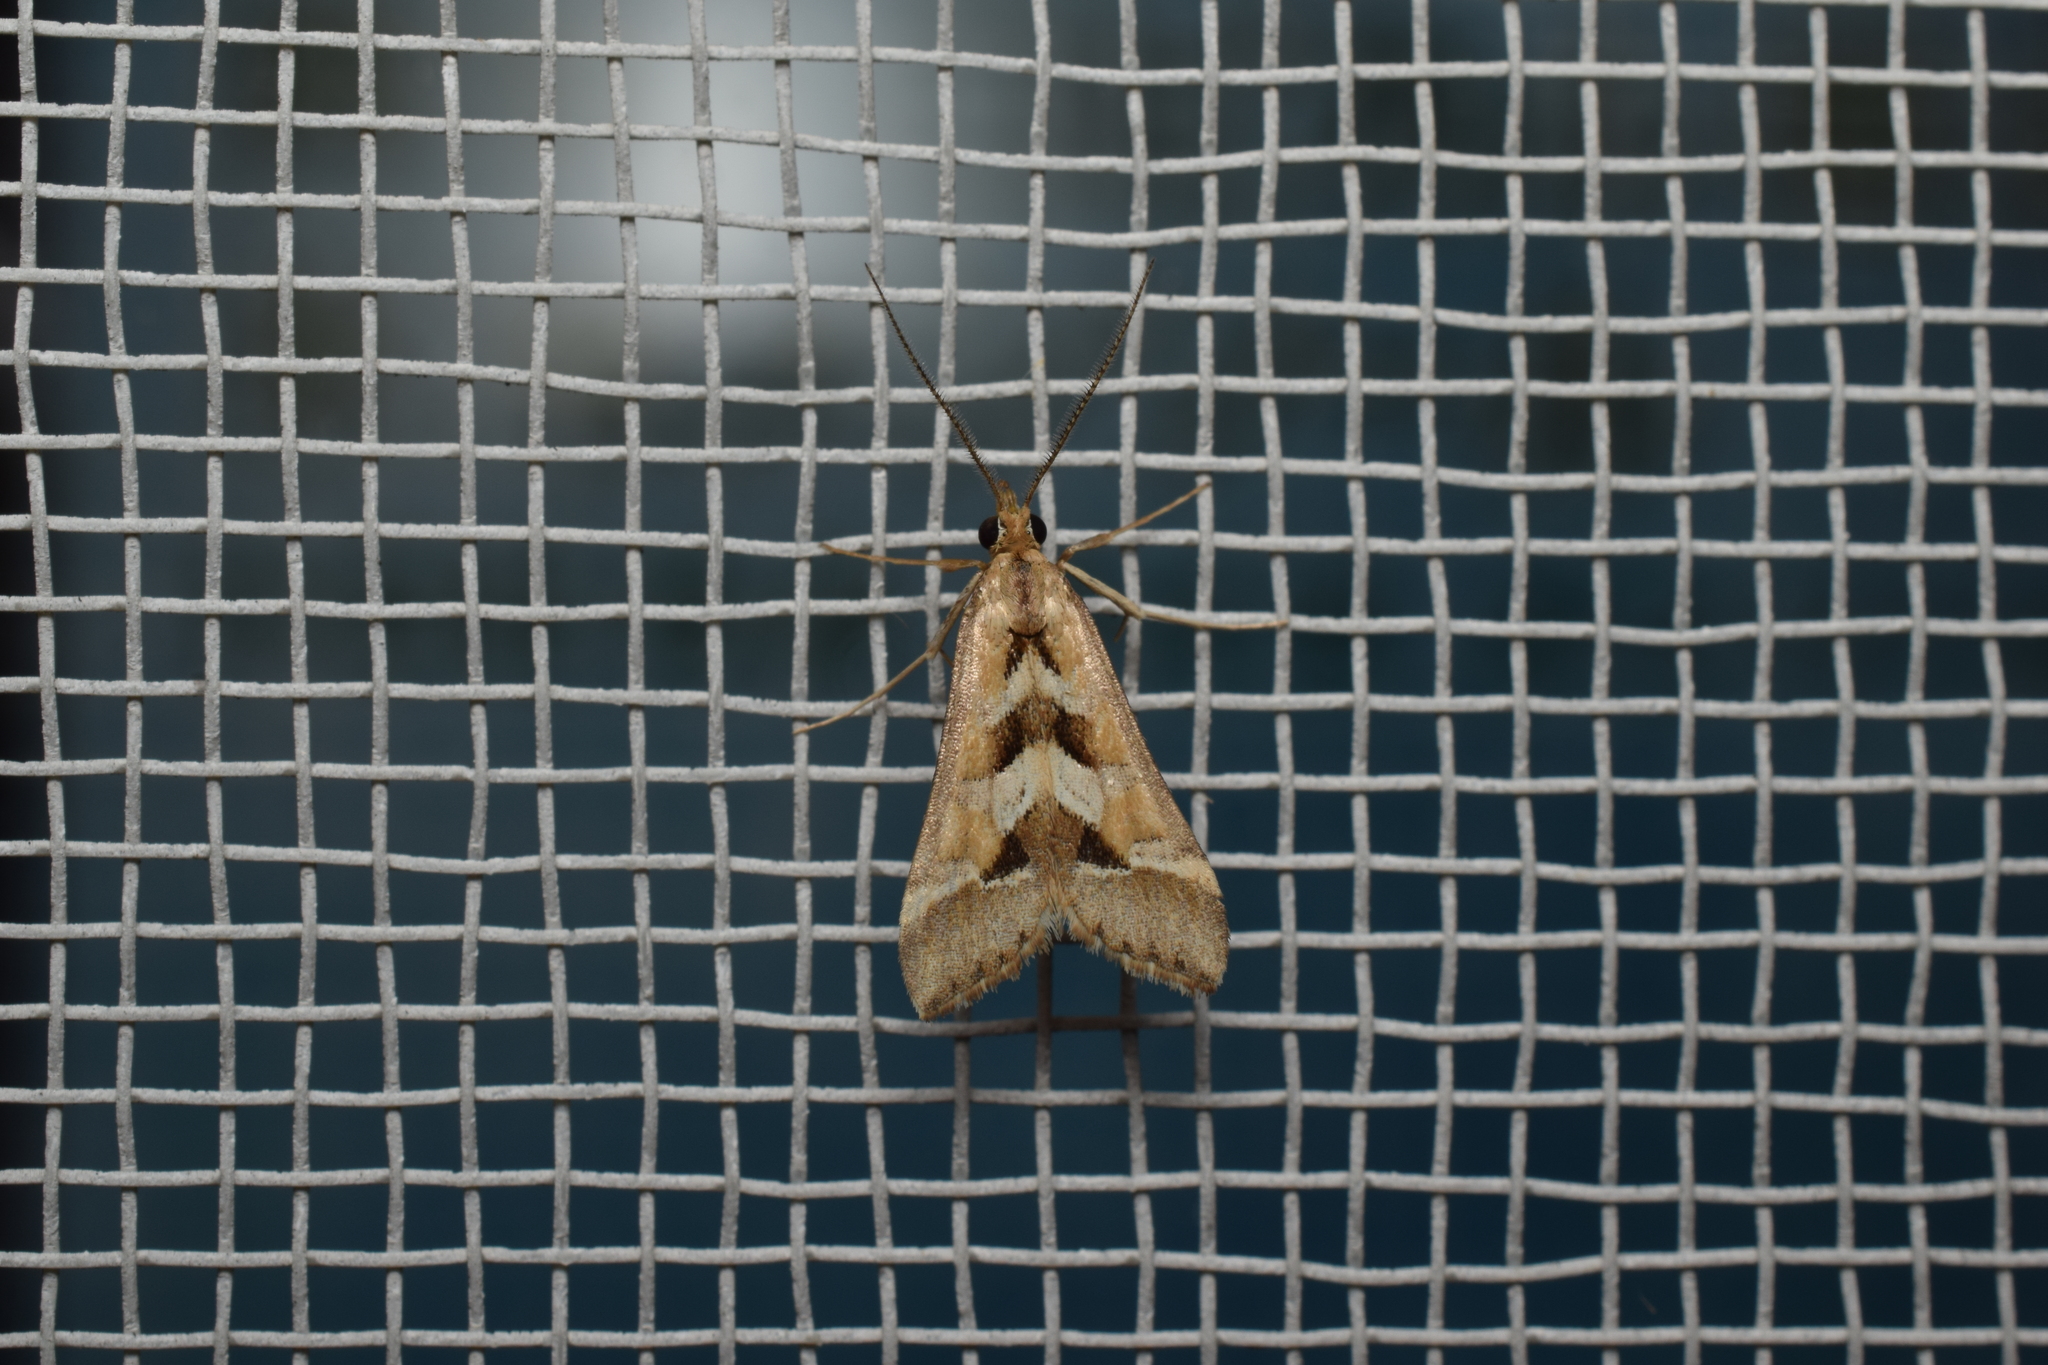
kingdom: Animalia
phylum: Arthropoda
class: Insecta
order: Lepidoptera
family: Crambidae
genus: Diasemia
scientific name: Diasemia accalis
